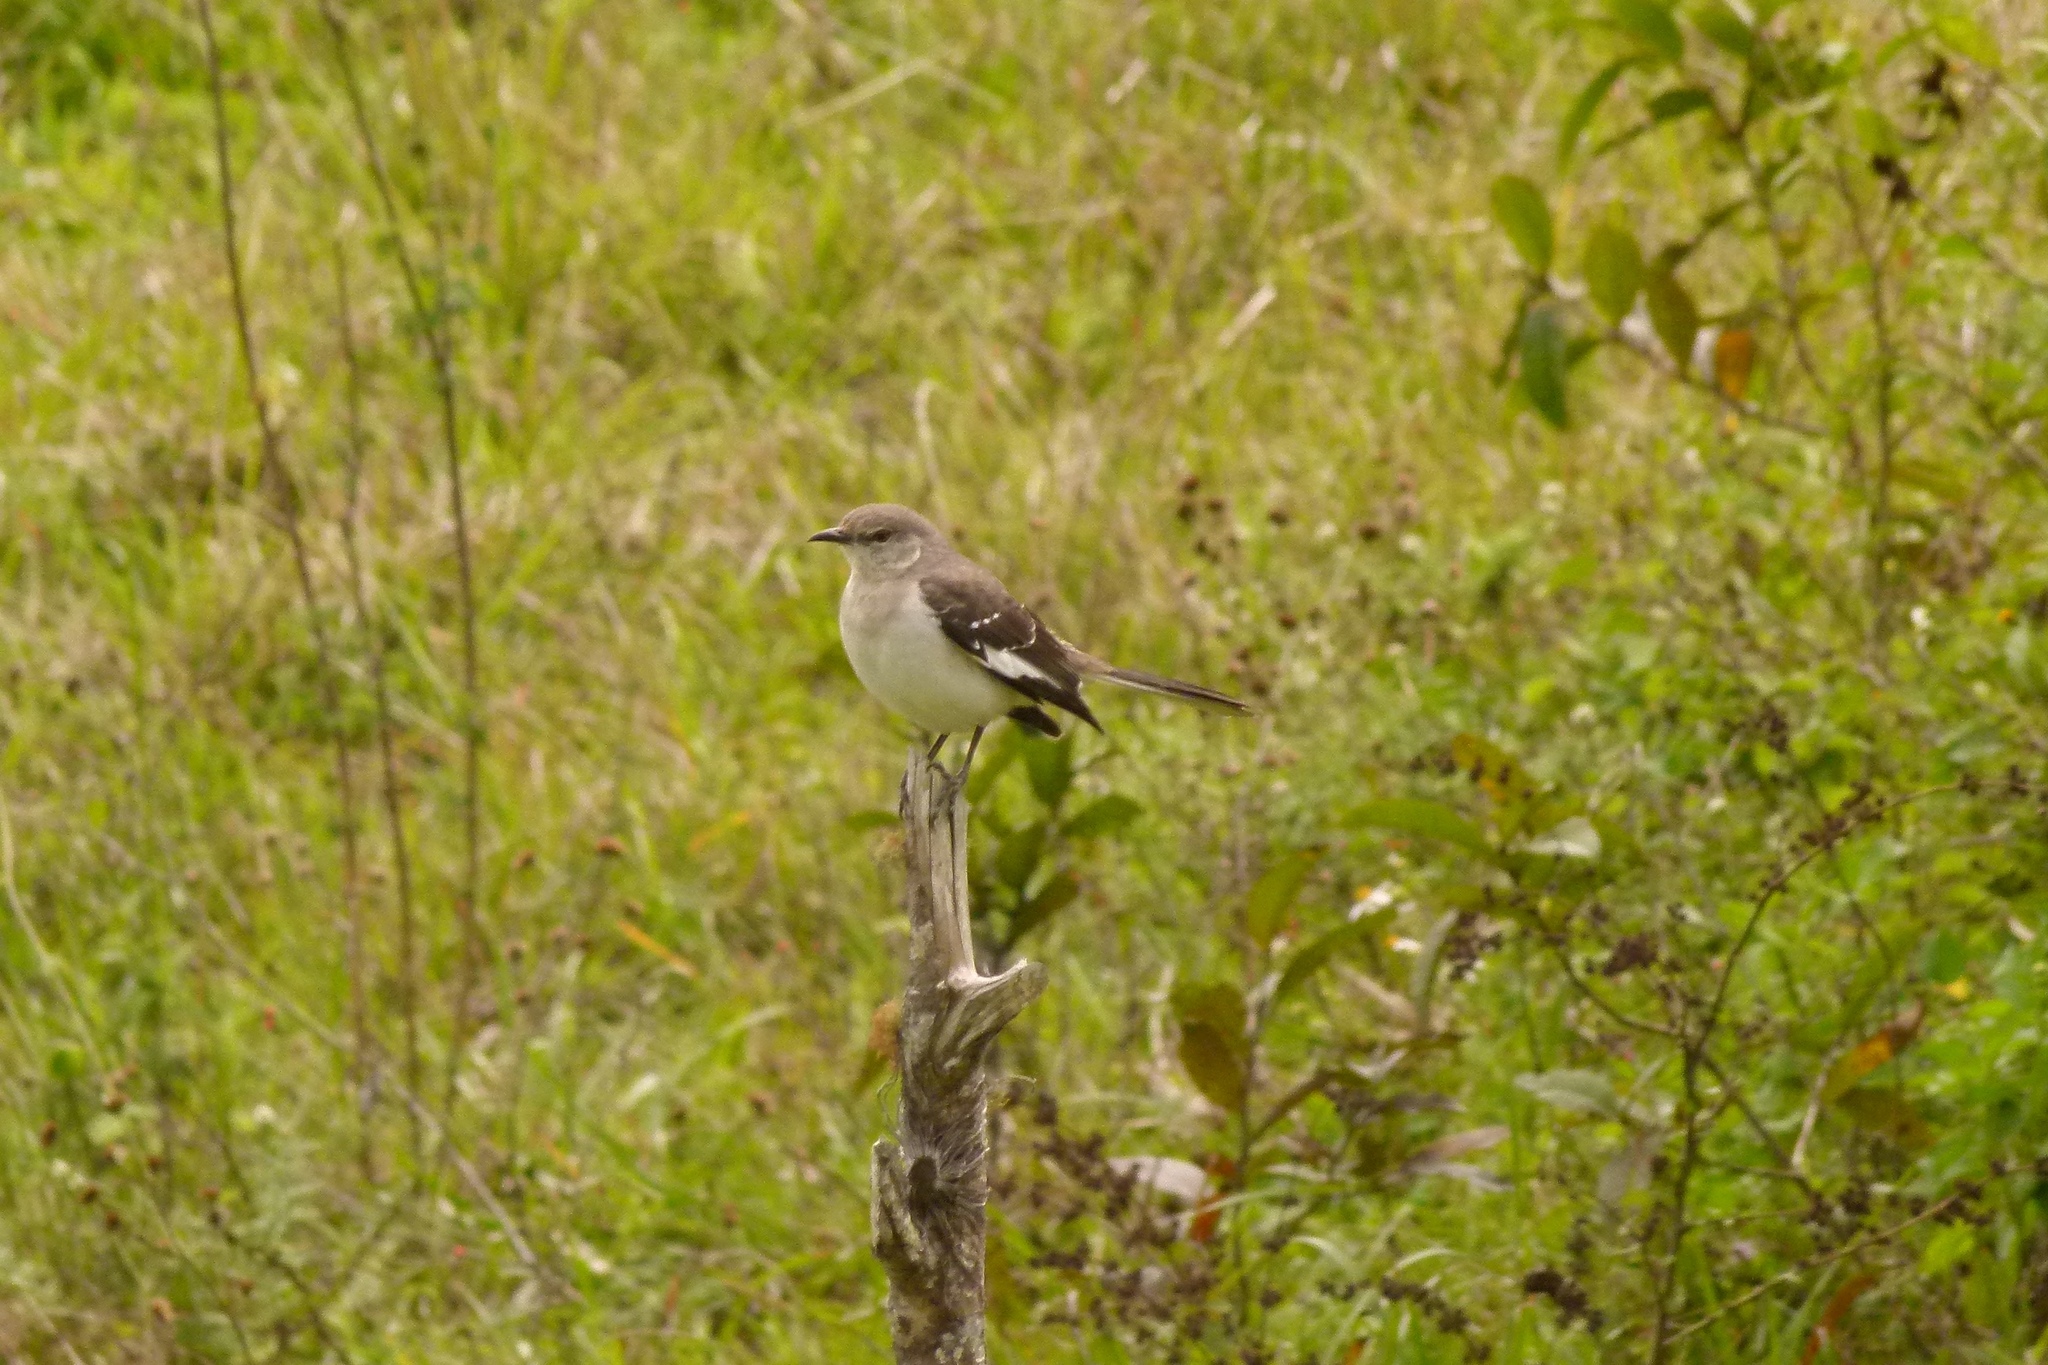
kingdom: Animalia
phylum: Chordata
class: Aves
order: Passeriformes
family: Mimidae
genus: Mimus
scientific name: Mimus polyglottos
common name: Northern mockingbird
